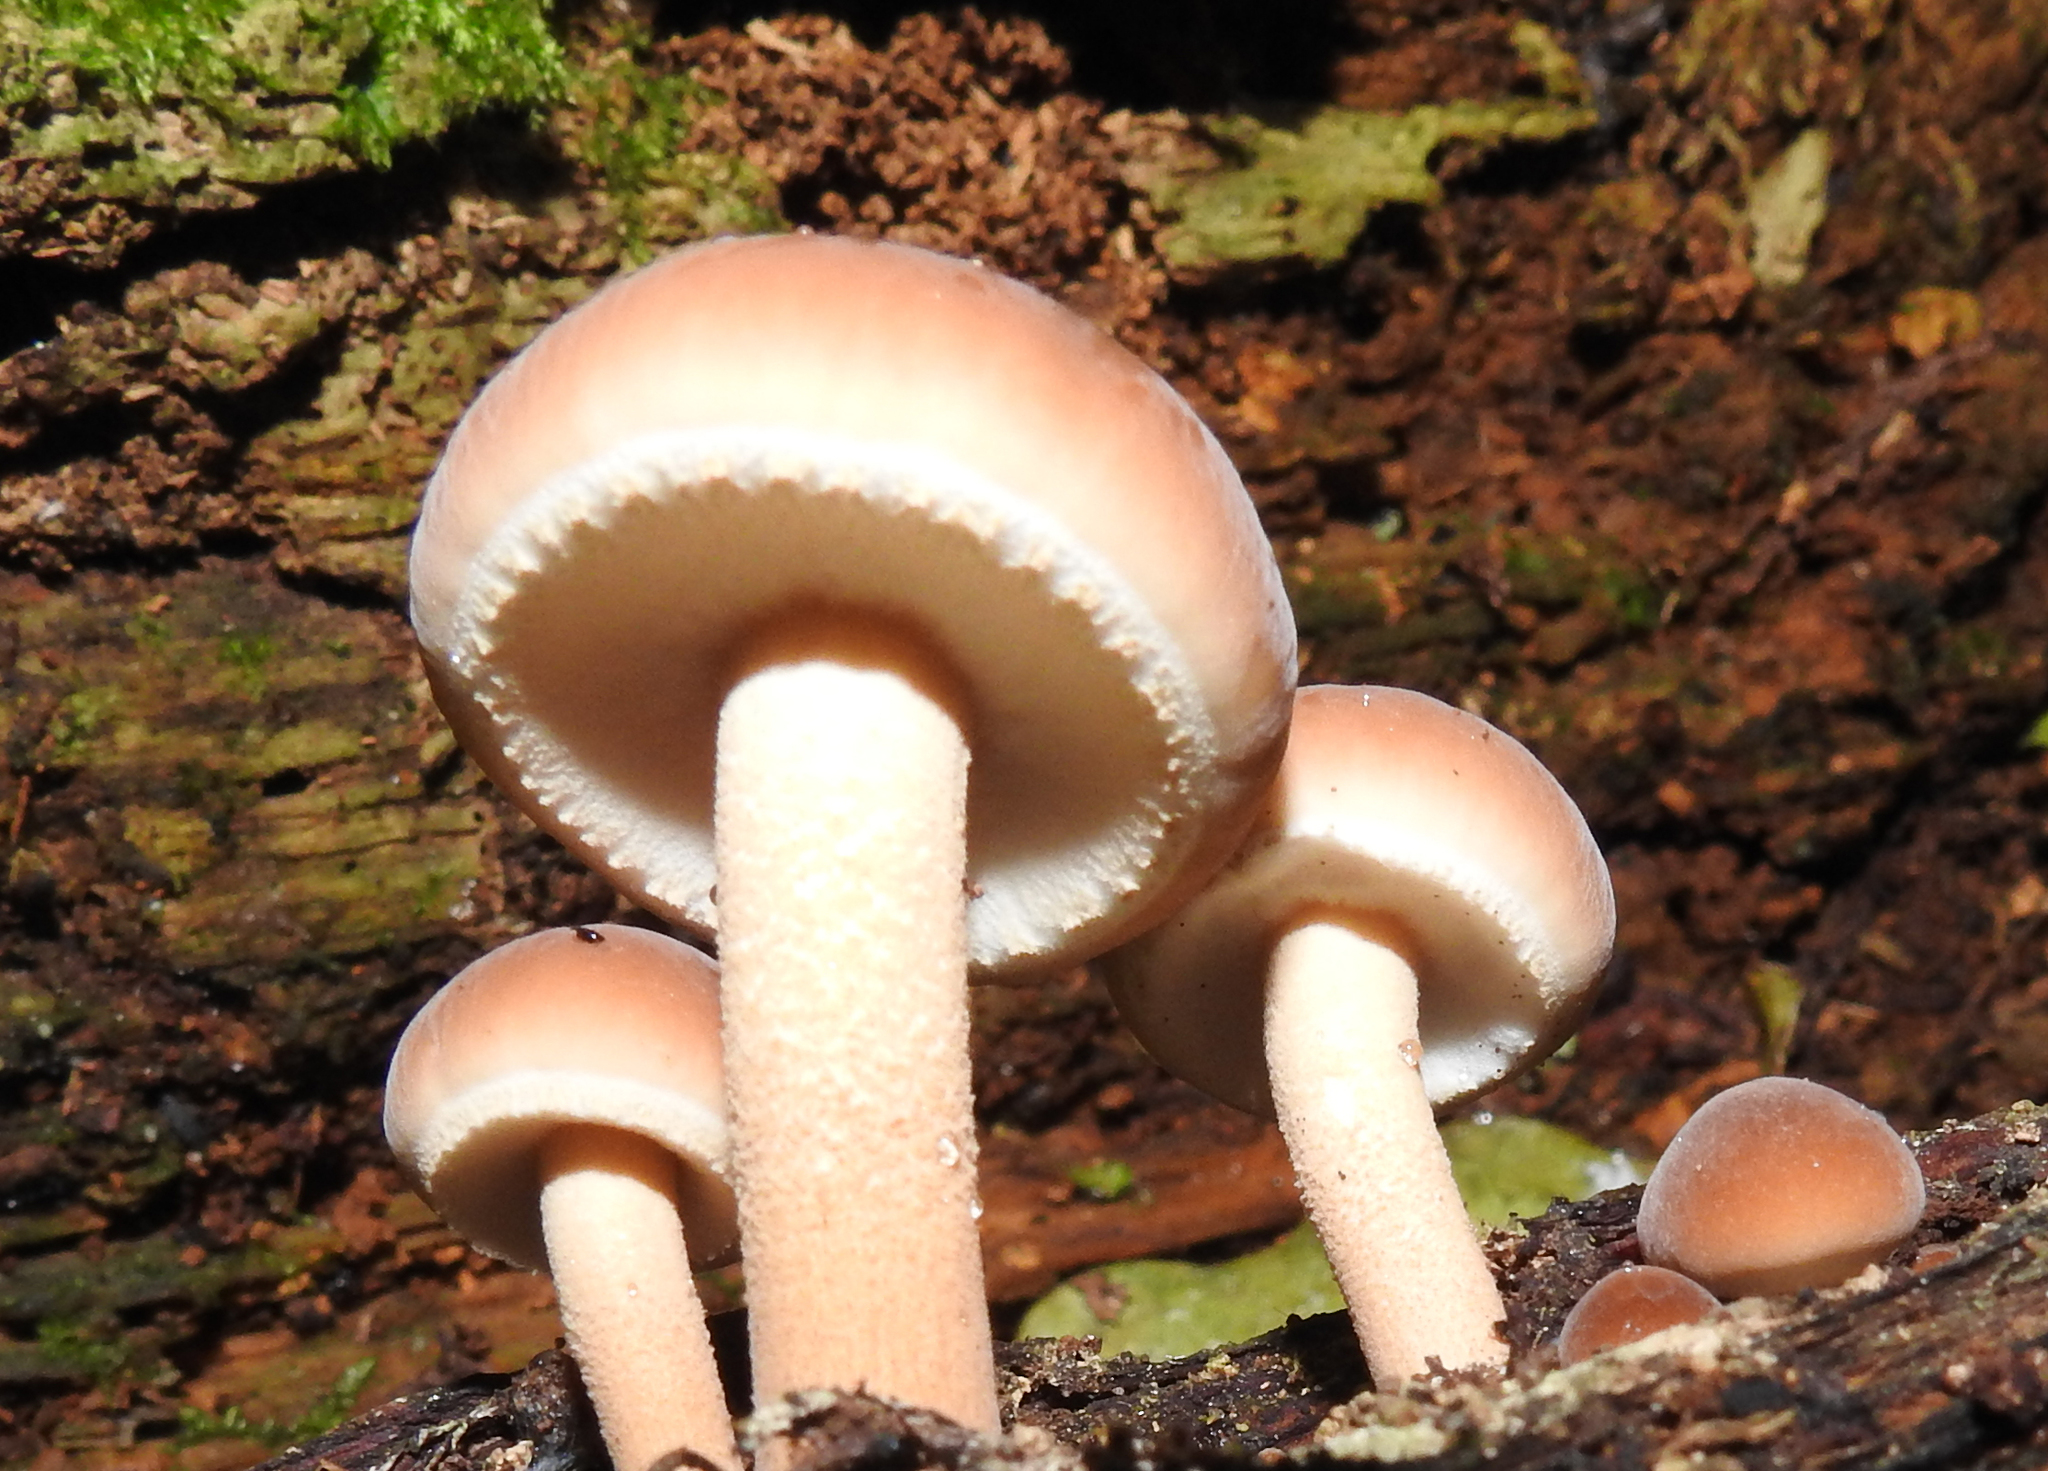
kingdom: Fungi
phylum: Basidiomycota
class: Agaricomycetes
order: Agaricales
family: Tubariaceae
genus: Cyclocybe
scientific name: Cyclocybe parasitica
